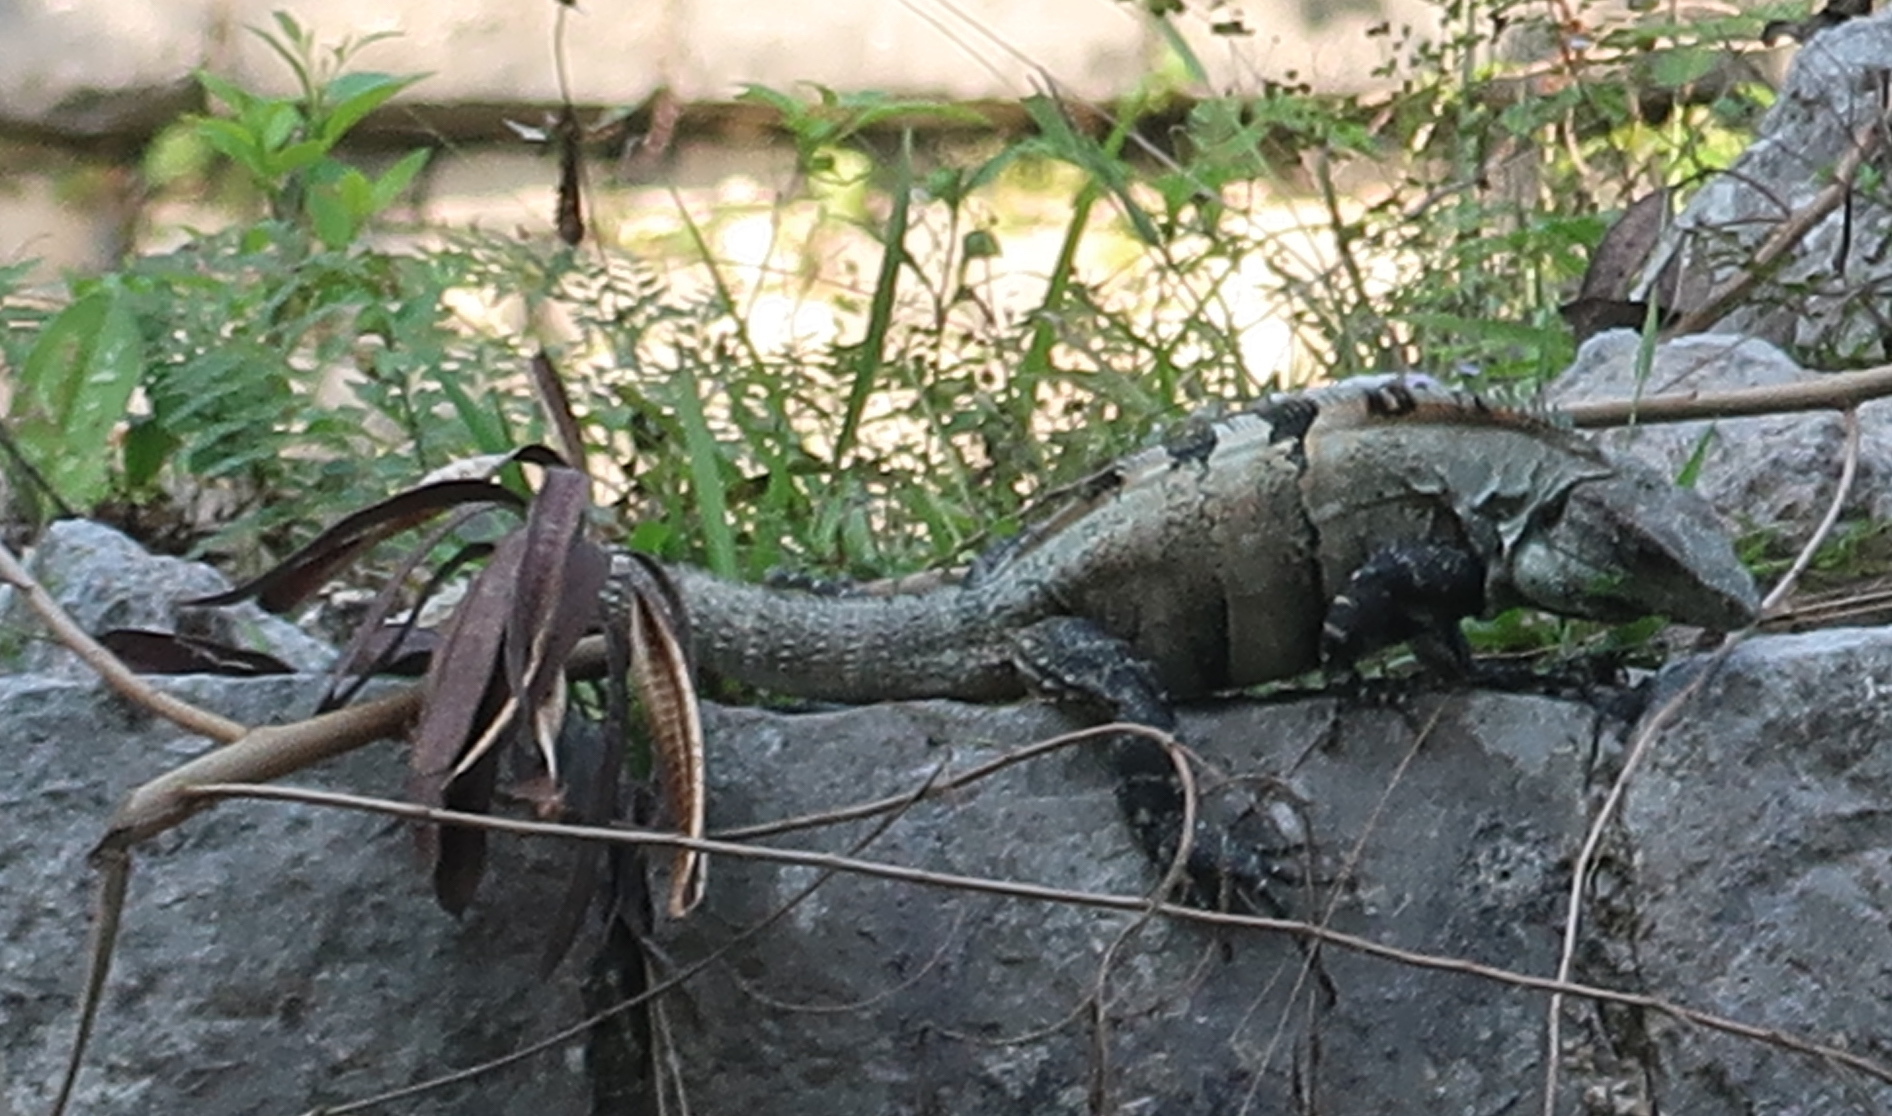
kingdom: Animalia
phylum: Chordata
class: Squamata
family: Iguanidae
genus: Ctenosaura
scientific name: Ctenosaura similis
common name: Black spiny-tailed iguana
